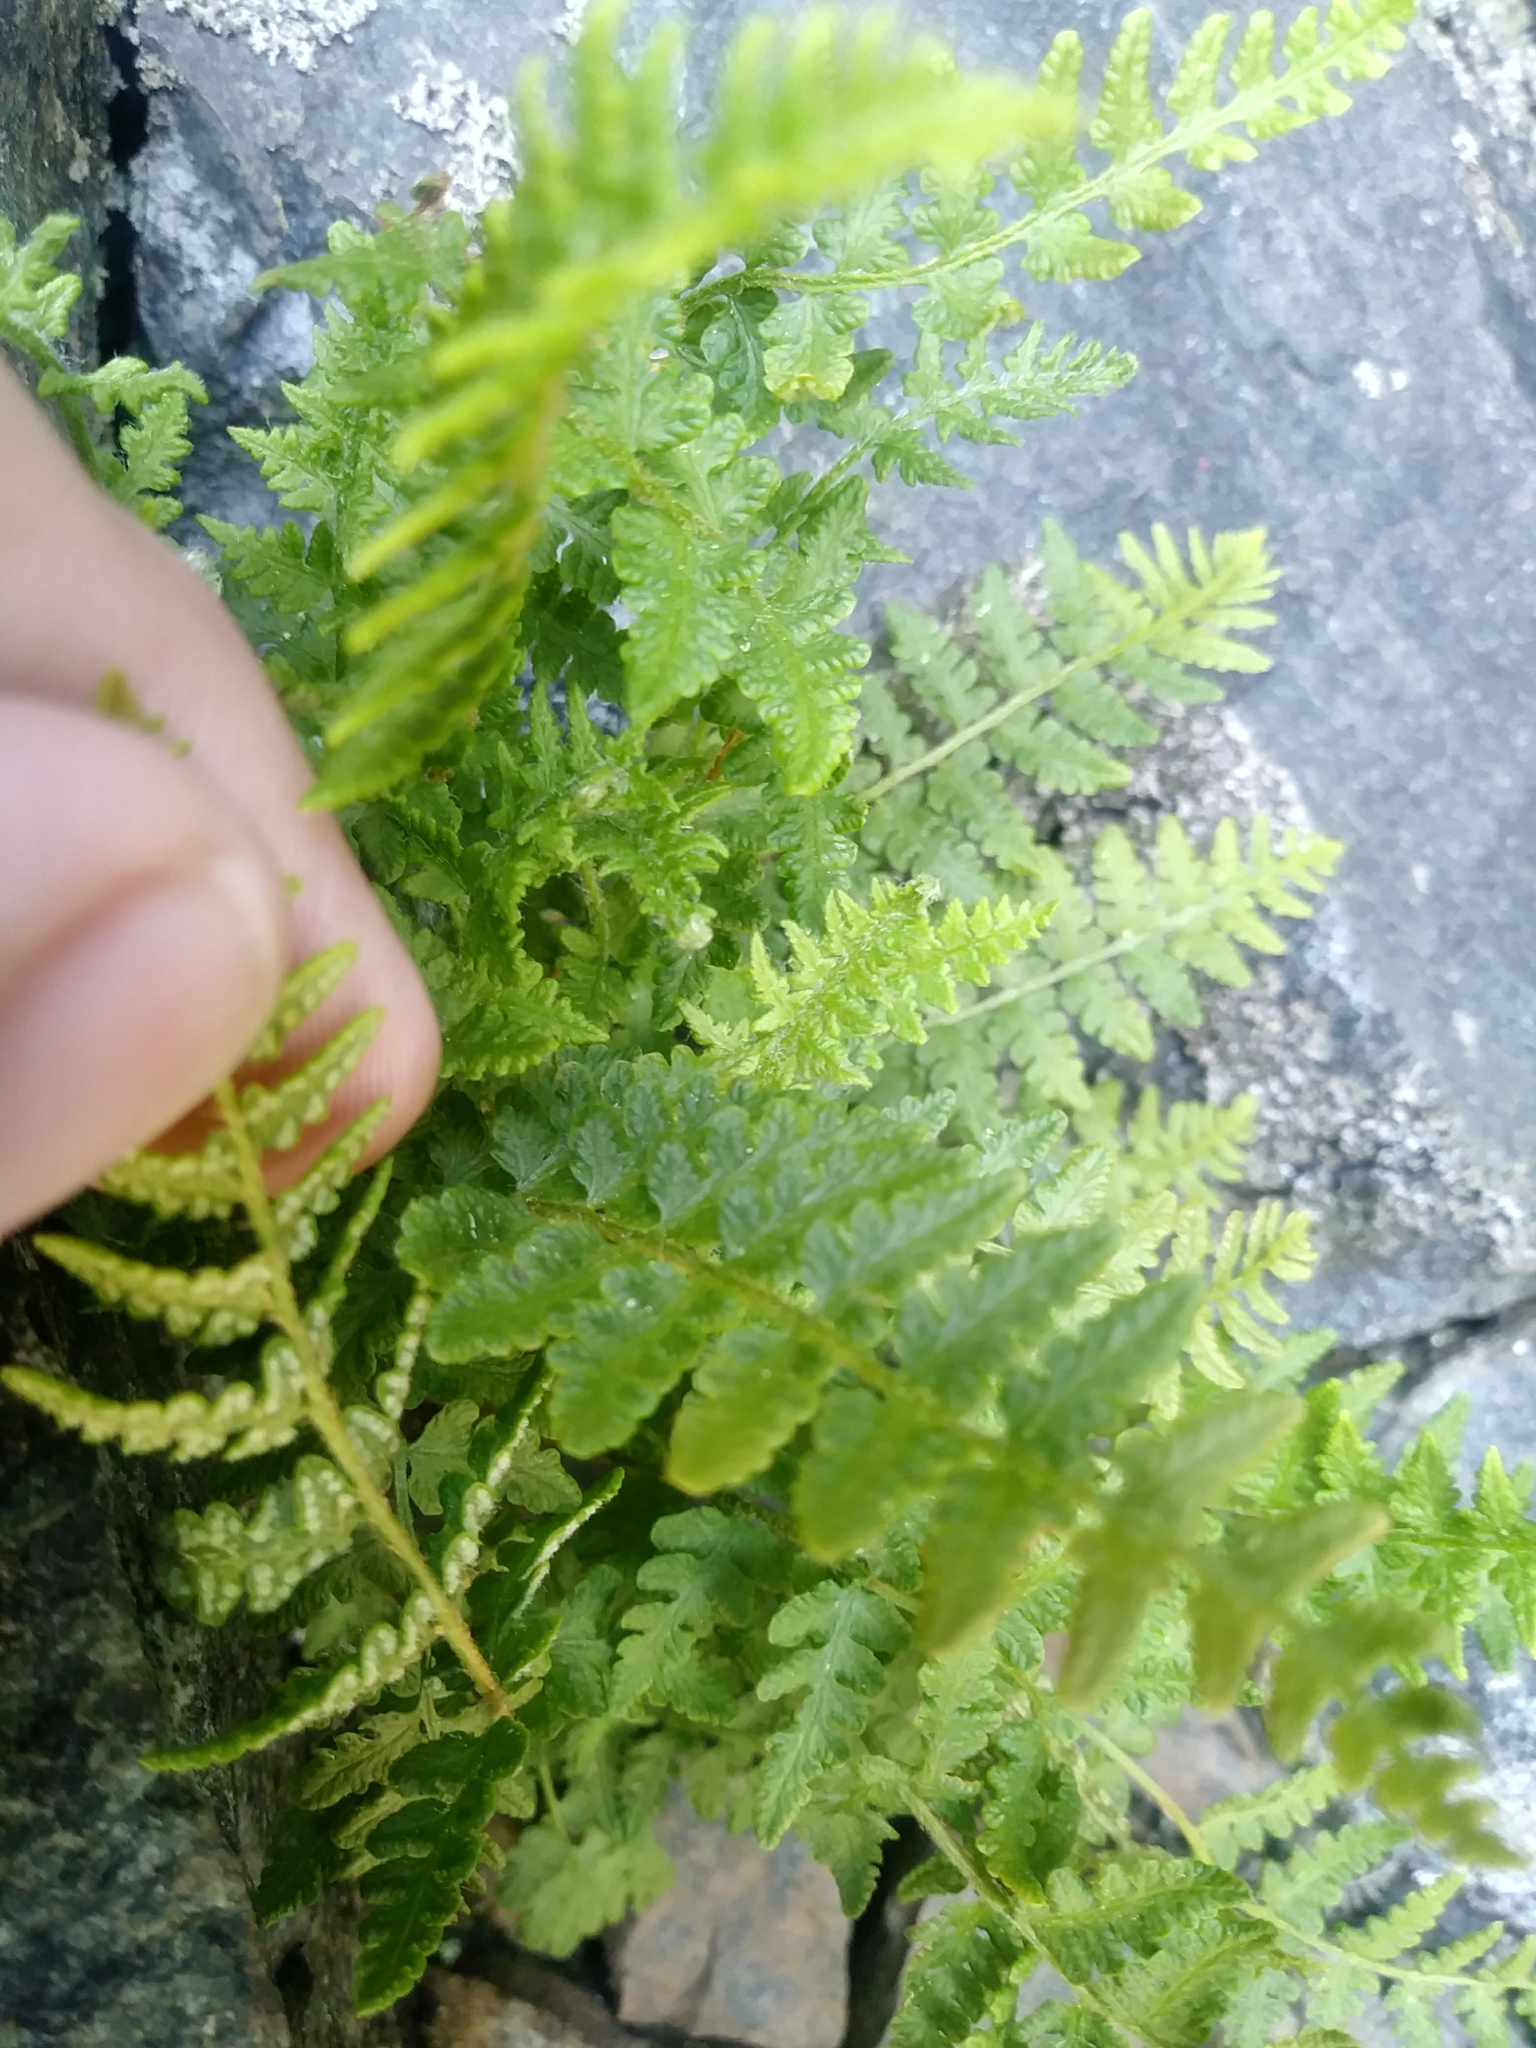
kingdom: Plantae
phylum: Tracheophyta
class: Polypodiopsida
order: Polypodiales
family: Woodsiaceae
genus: Woodsia
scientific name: Woodsia ilvensis
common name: Fragrant woodsia
